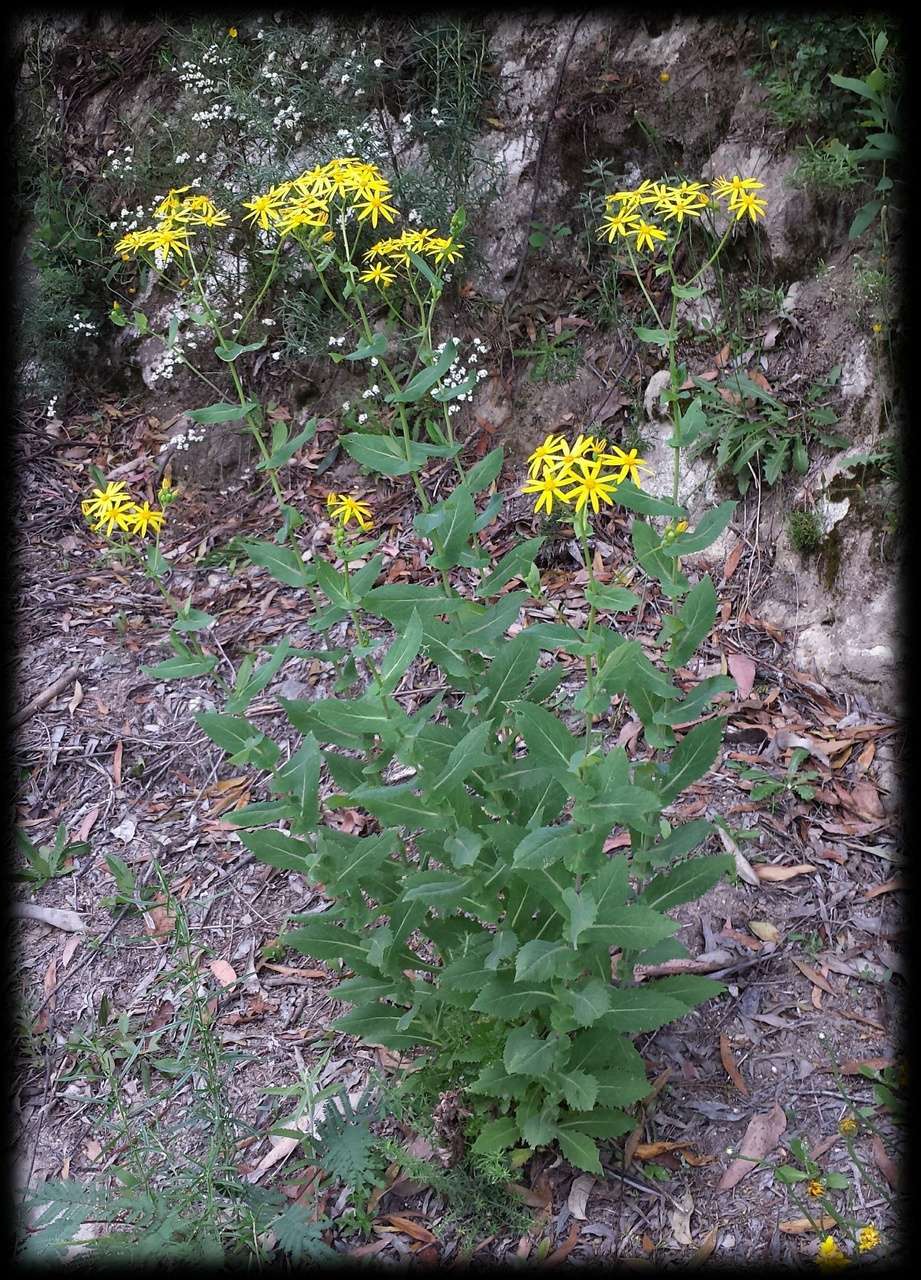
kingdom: Plantae
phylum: Tracheophyta
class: Magnoliopsida
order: Asterales
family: Asteraceae
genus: Lordhowea
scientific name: Lordhowea velleioides
